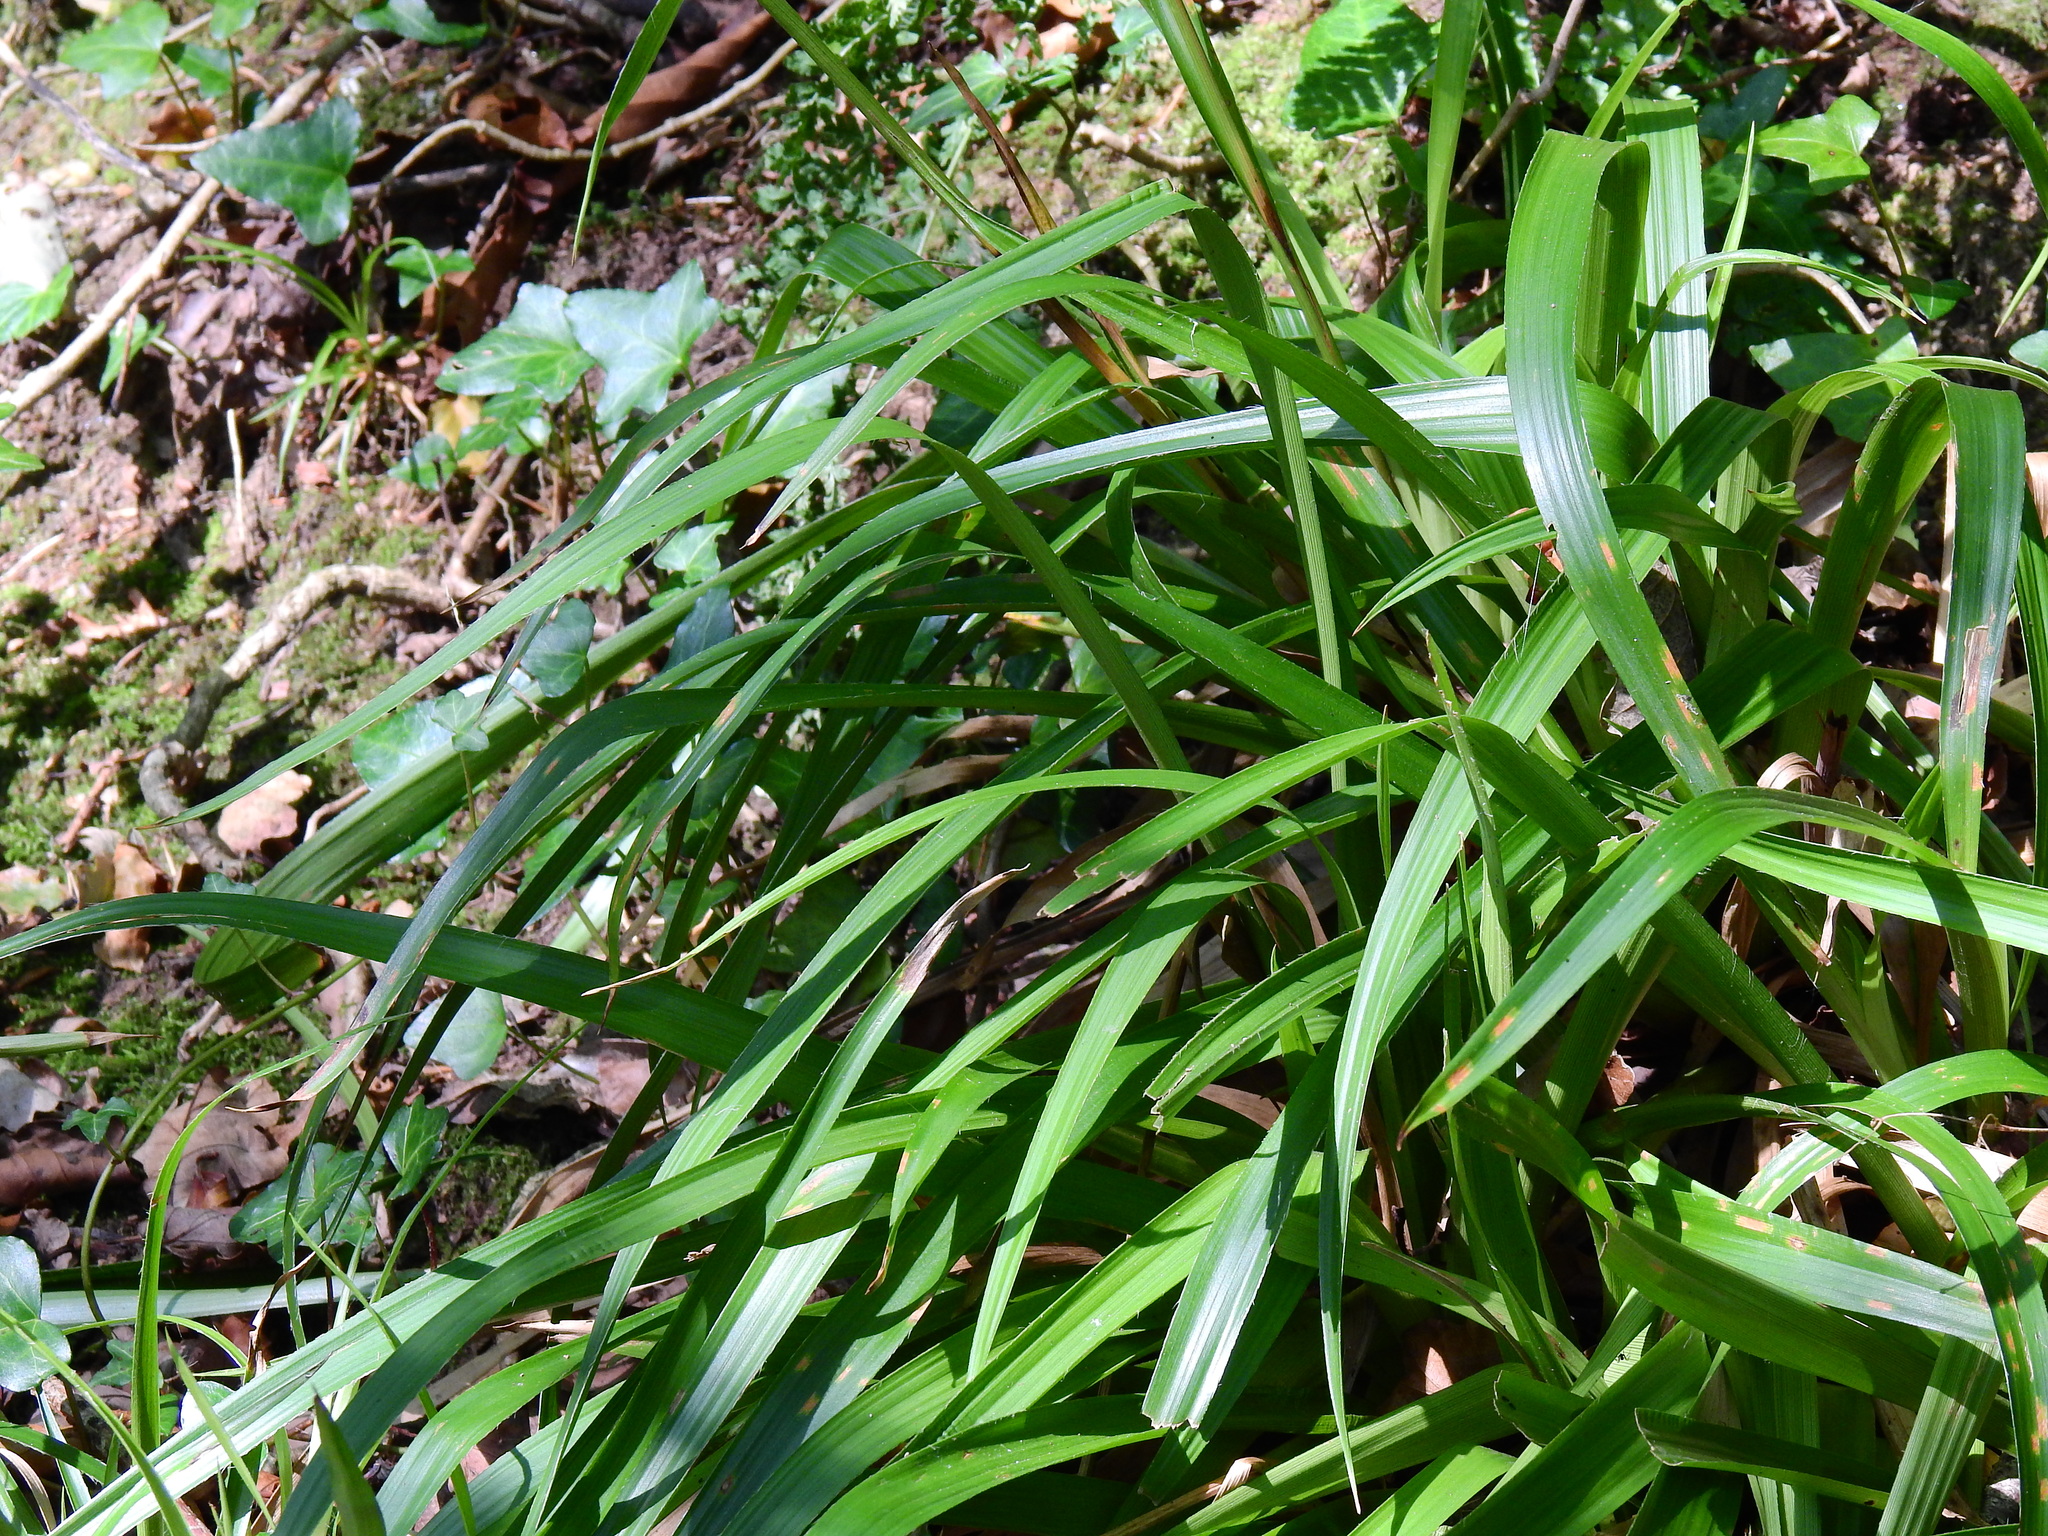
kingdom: Plantae
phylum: Tracheophyta
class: Liliopsida
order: Poales
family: Juncaceae
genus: Luzula
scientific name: Luzula sylvatica
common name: Great wood-rush
